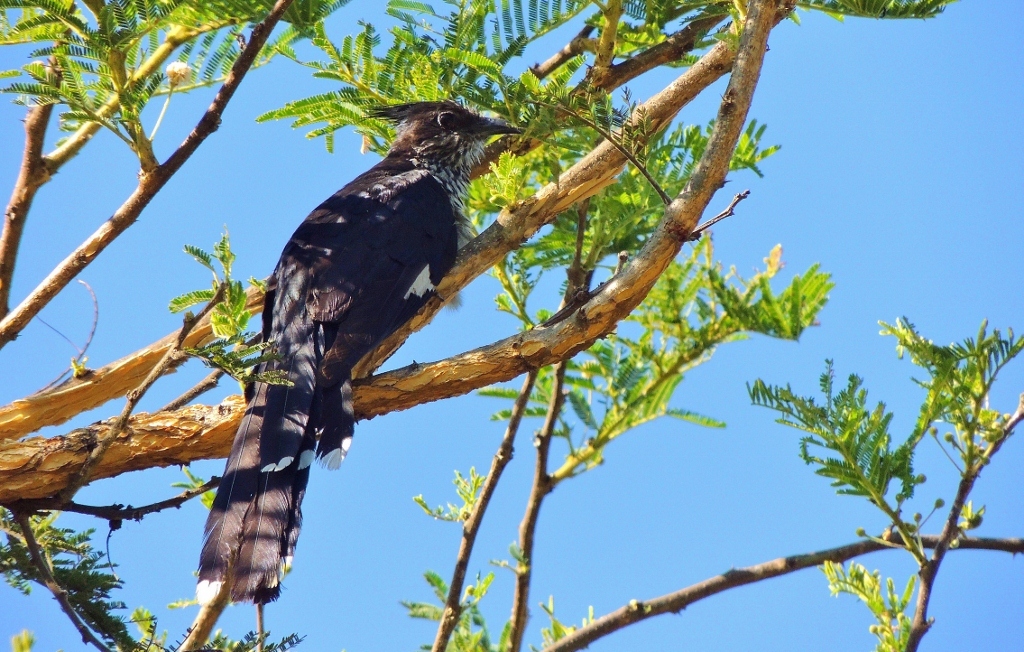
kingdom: Animalia
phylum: Chordata
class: Aves
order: Cuculiformes
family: Cuculidae
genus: Clamator
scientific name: Clamator levaillantii
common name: Levaillant's cuckoo
